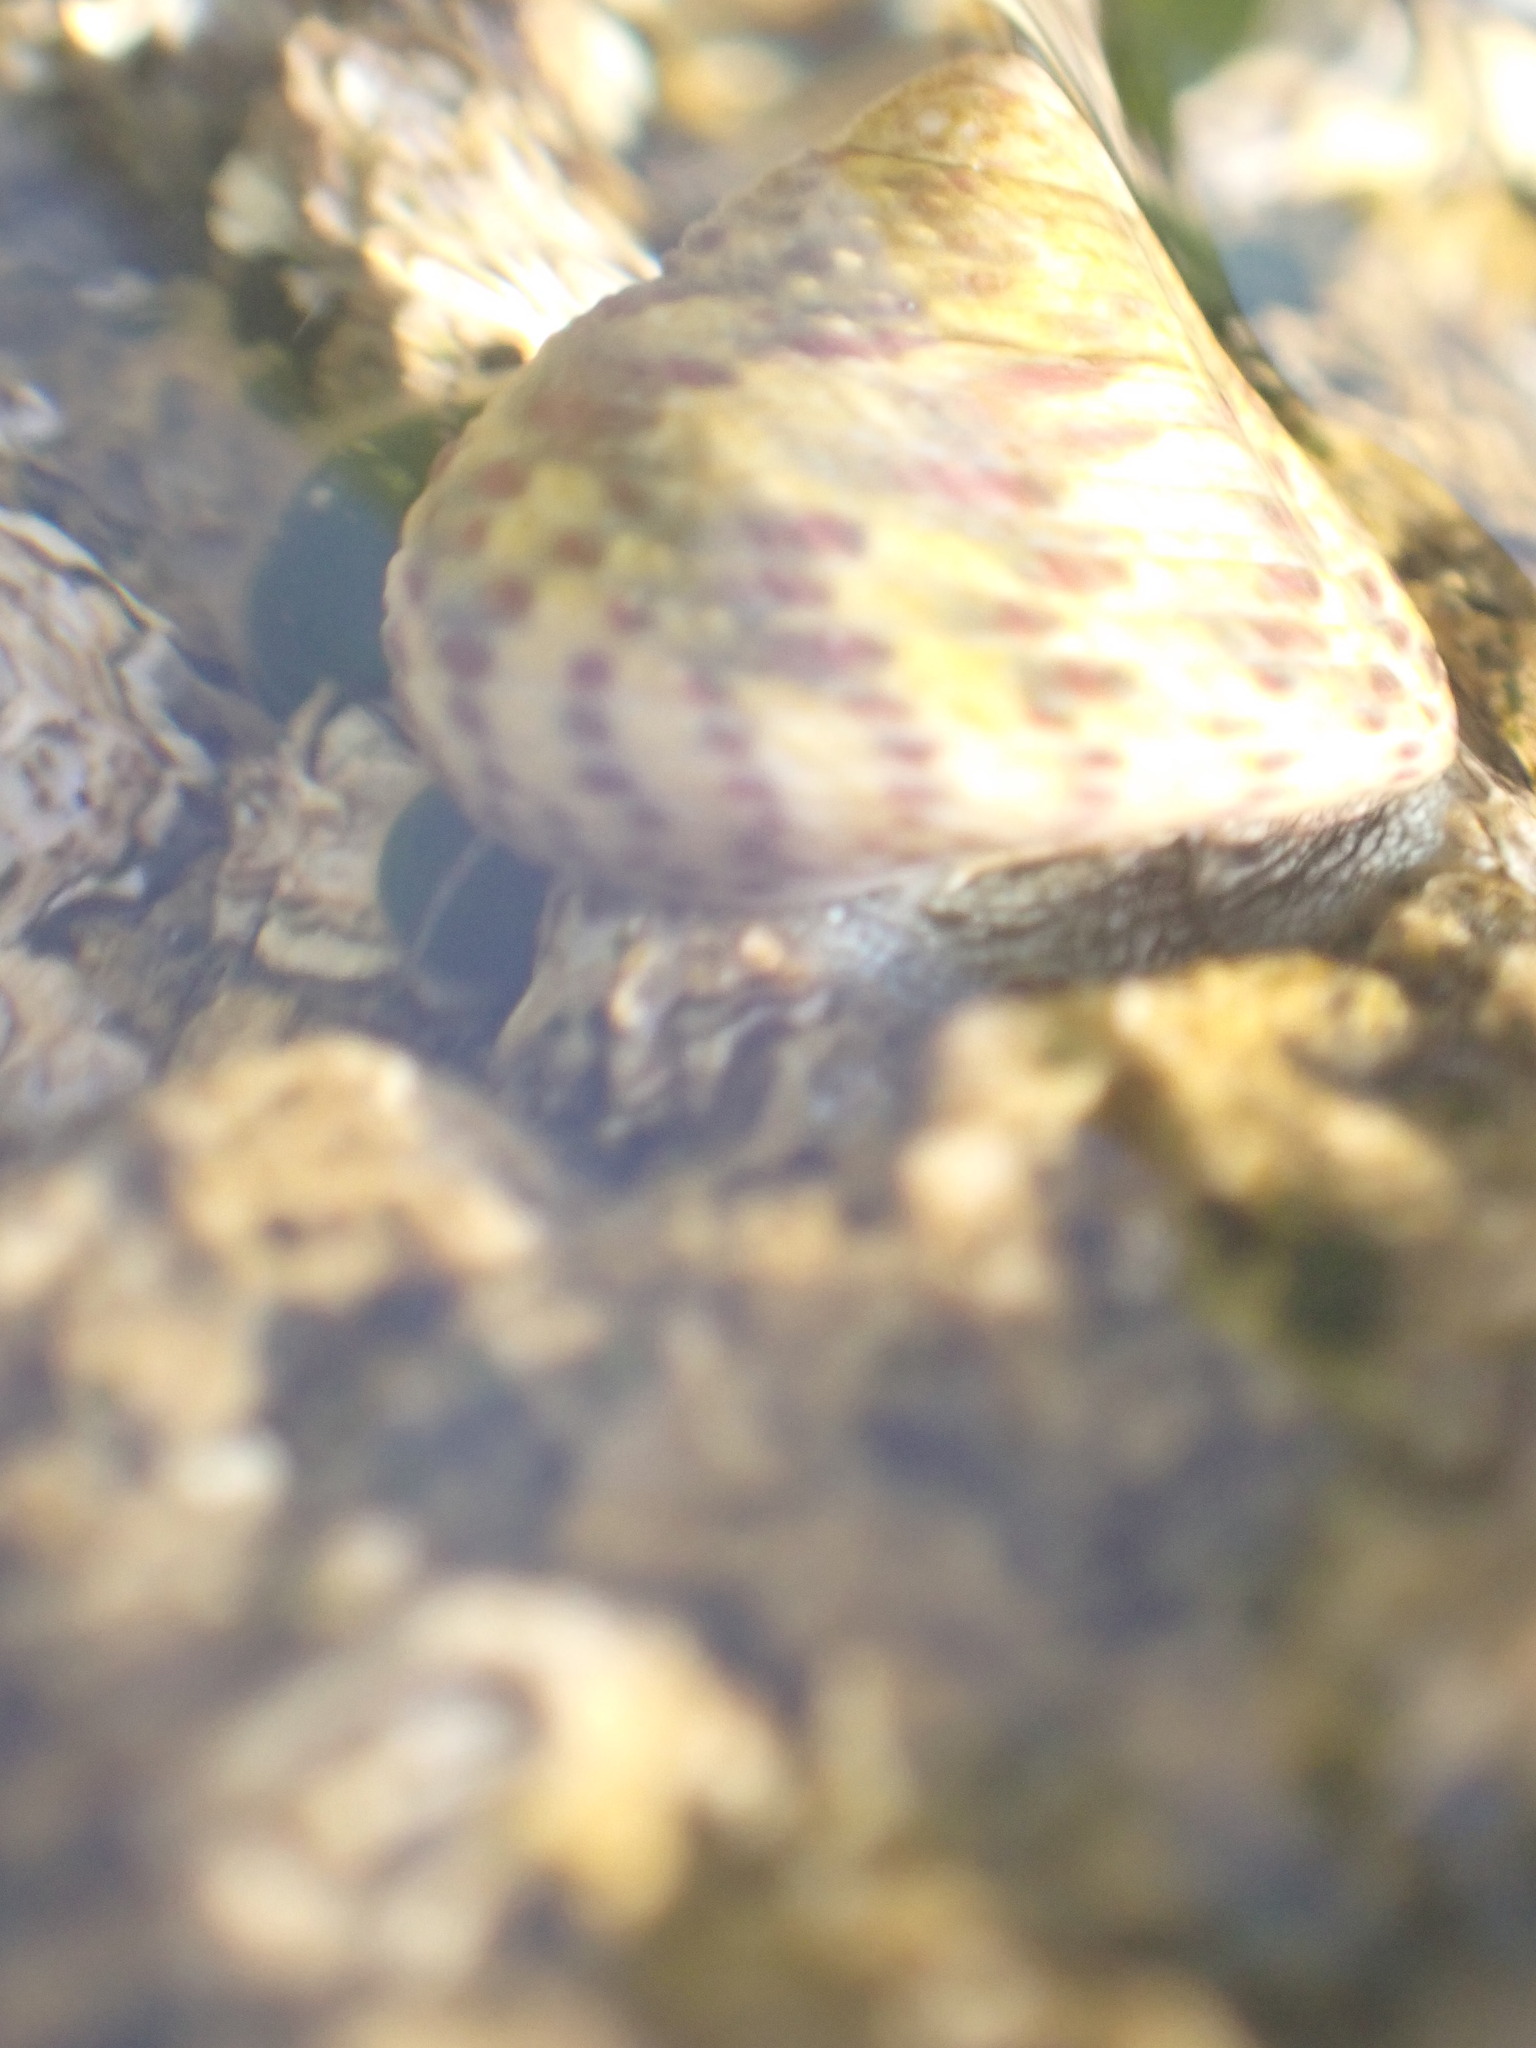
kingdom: Animalia
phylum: Mollusca
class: Gastropoda
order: Trochida
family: Trochidae
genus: Phorcus
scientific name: Phorcus turbinatus
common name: Turbinate monodont
